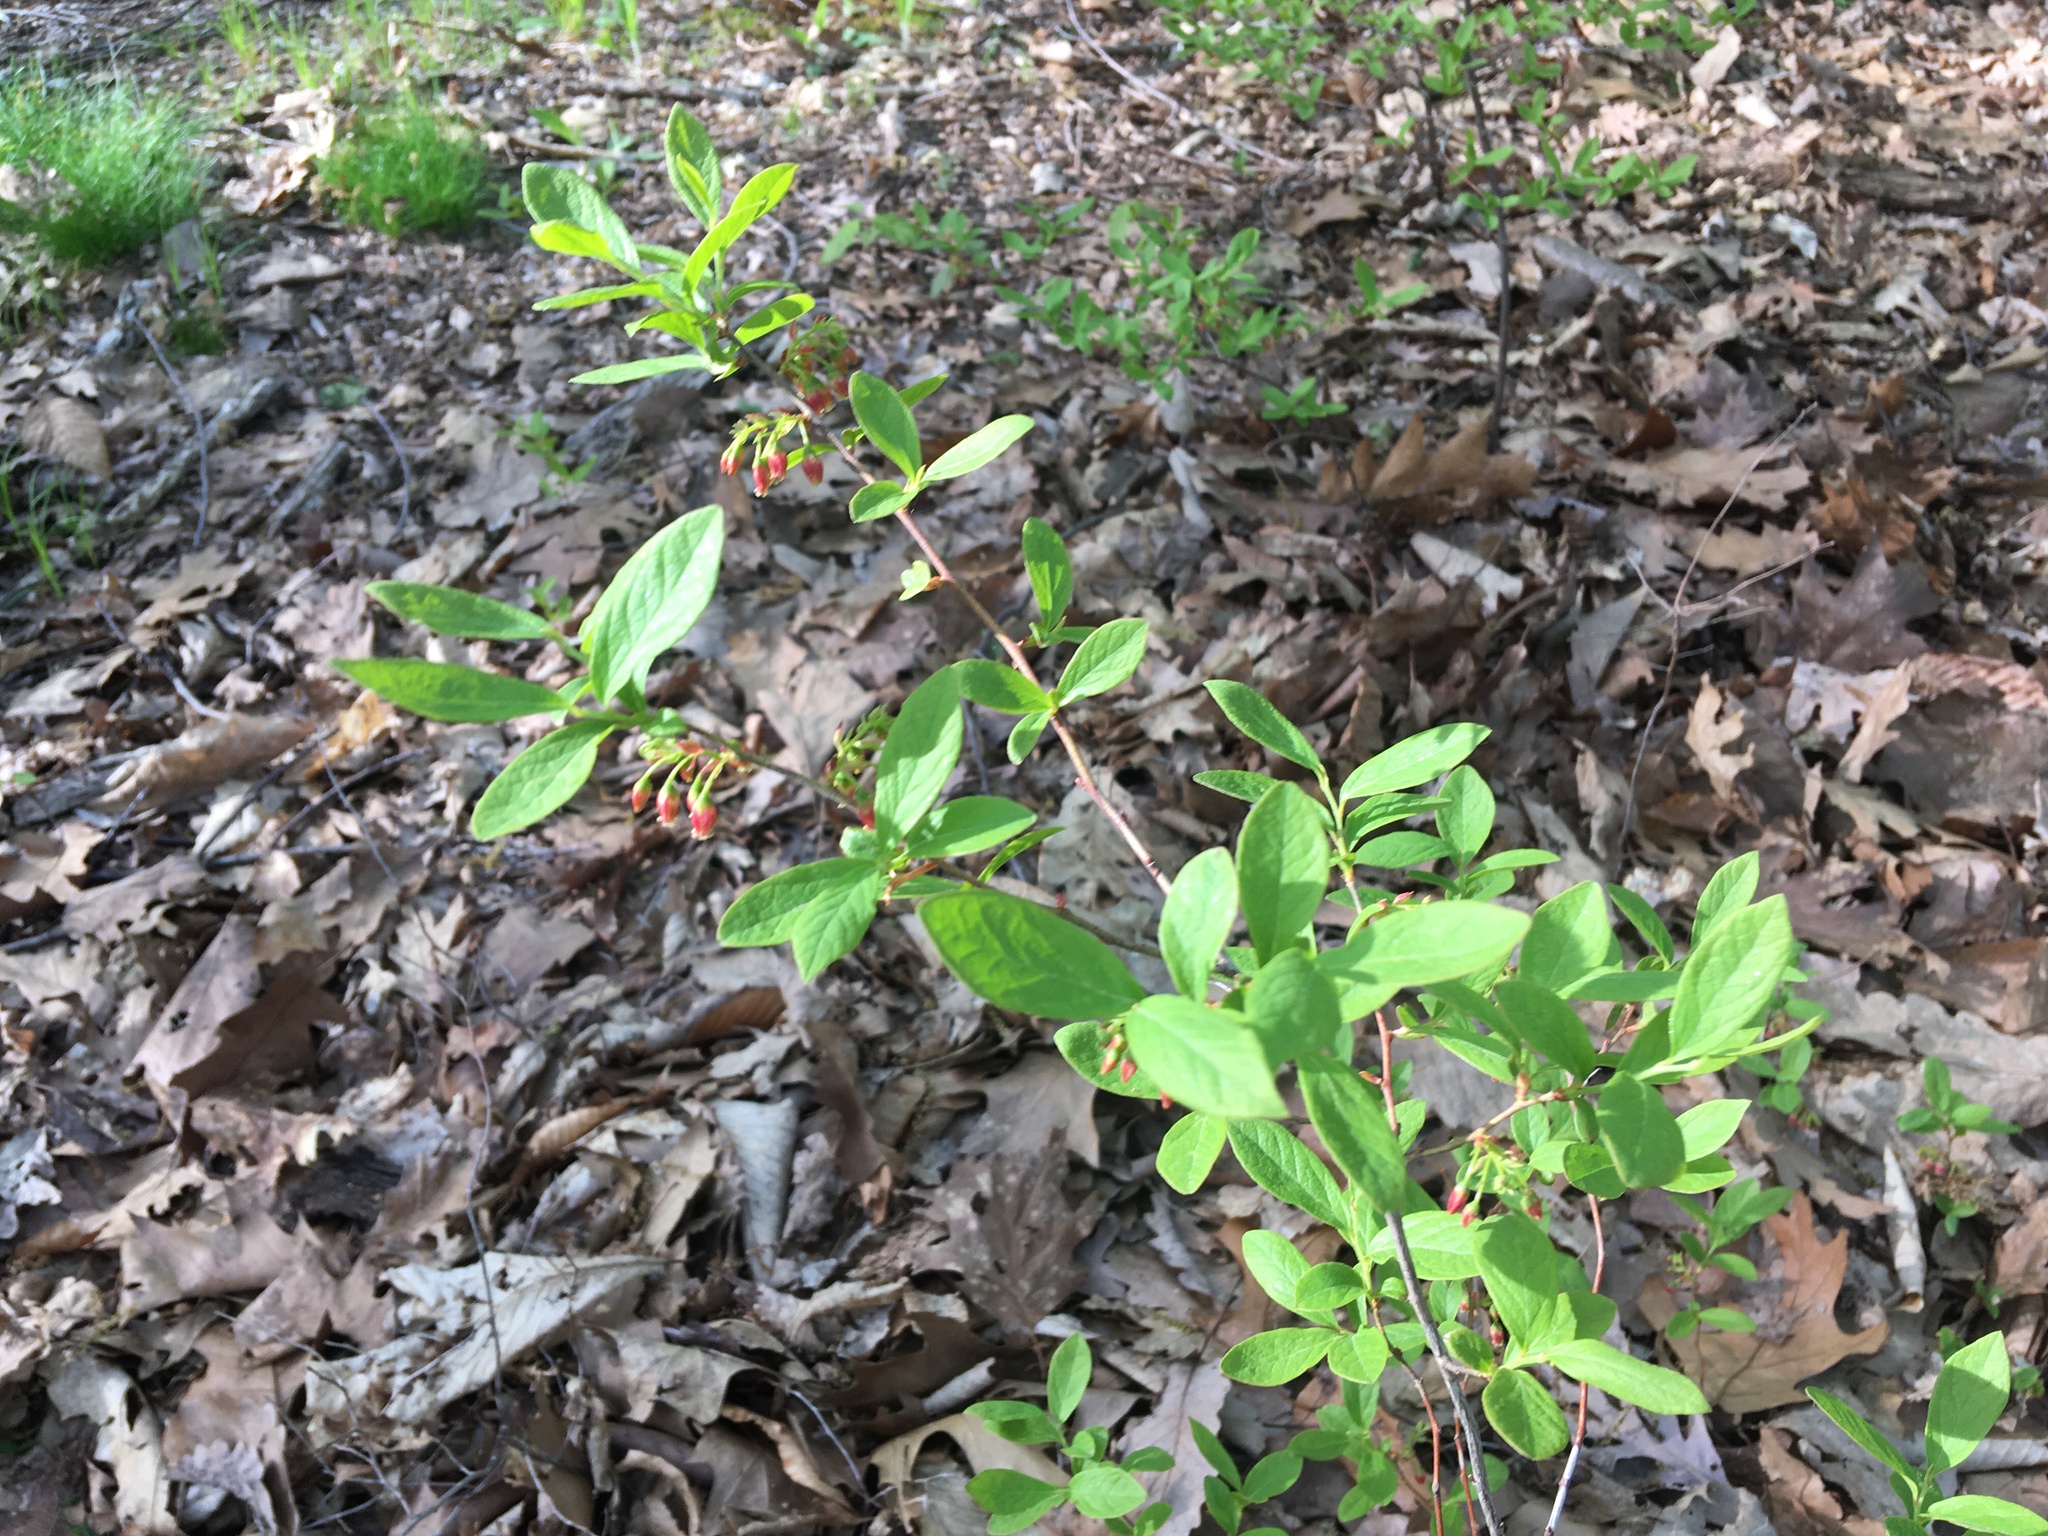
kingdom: Plantae
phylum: Tracheophyta
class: Magnoliopsida
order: Ericales
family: Ericaceae
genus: Gaylussacia
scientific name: Gaylussacia baccata
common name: Black huckleberry
